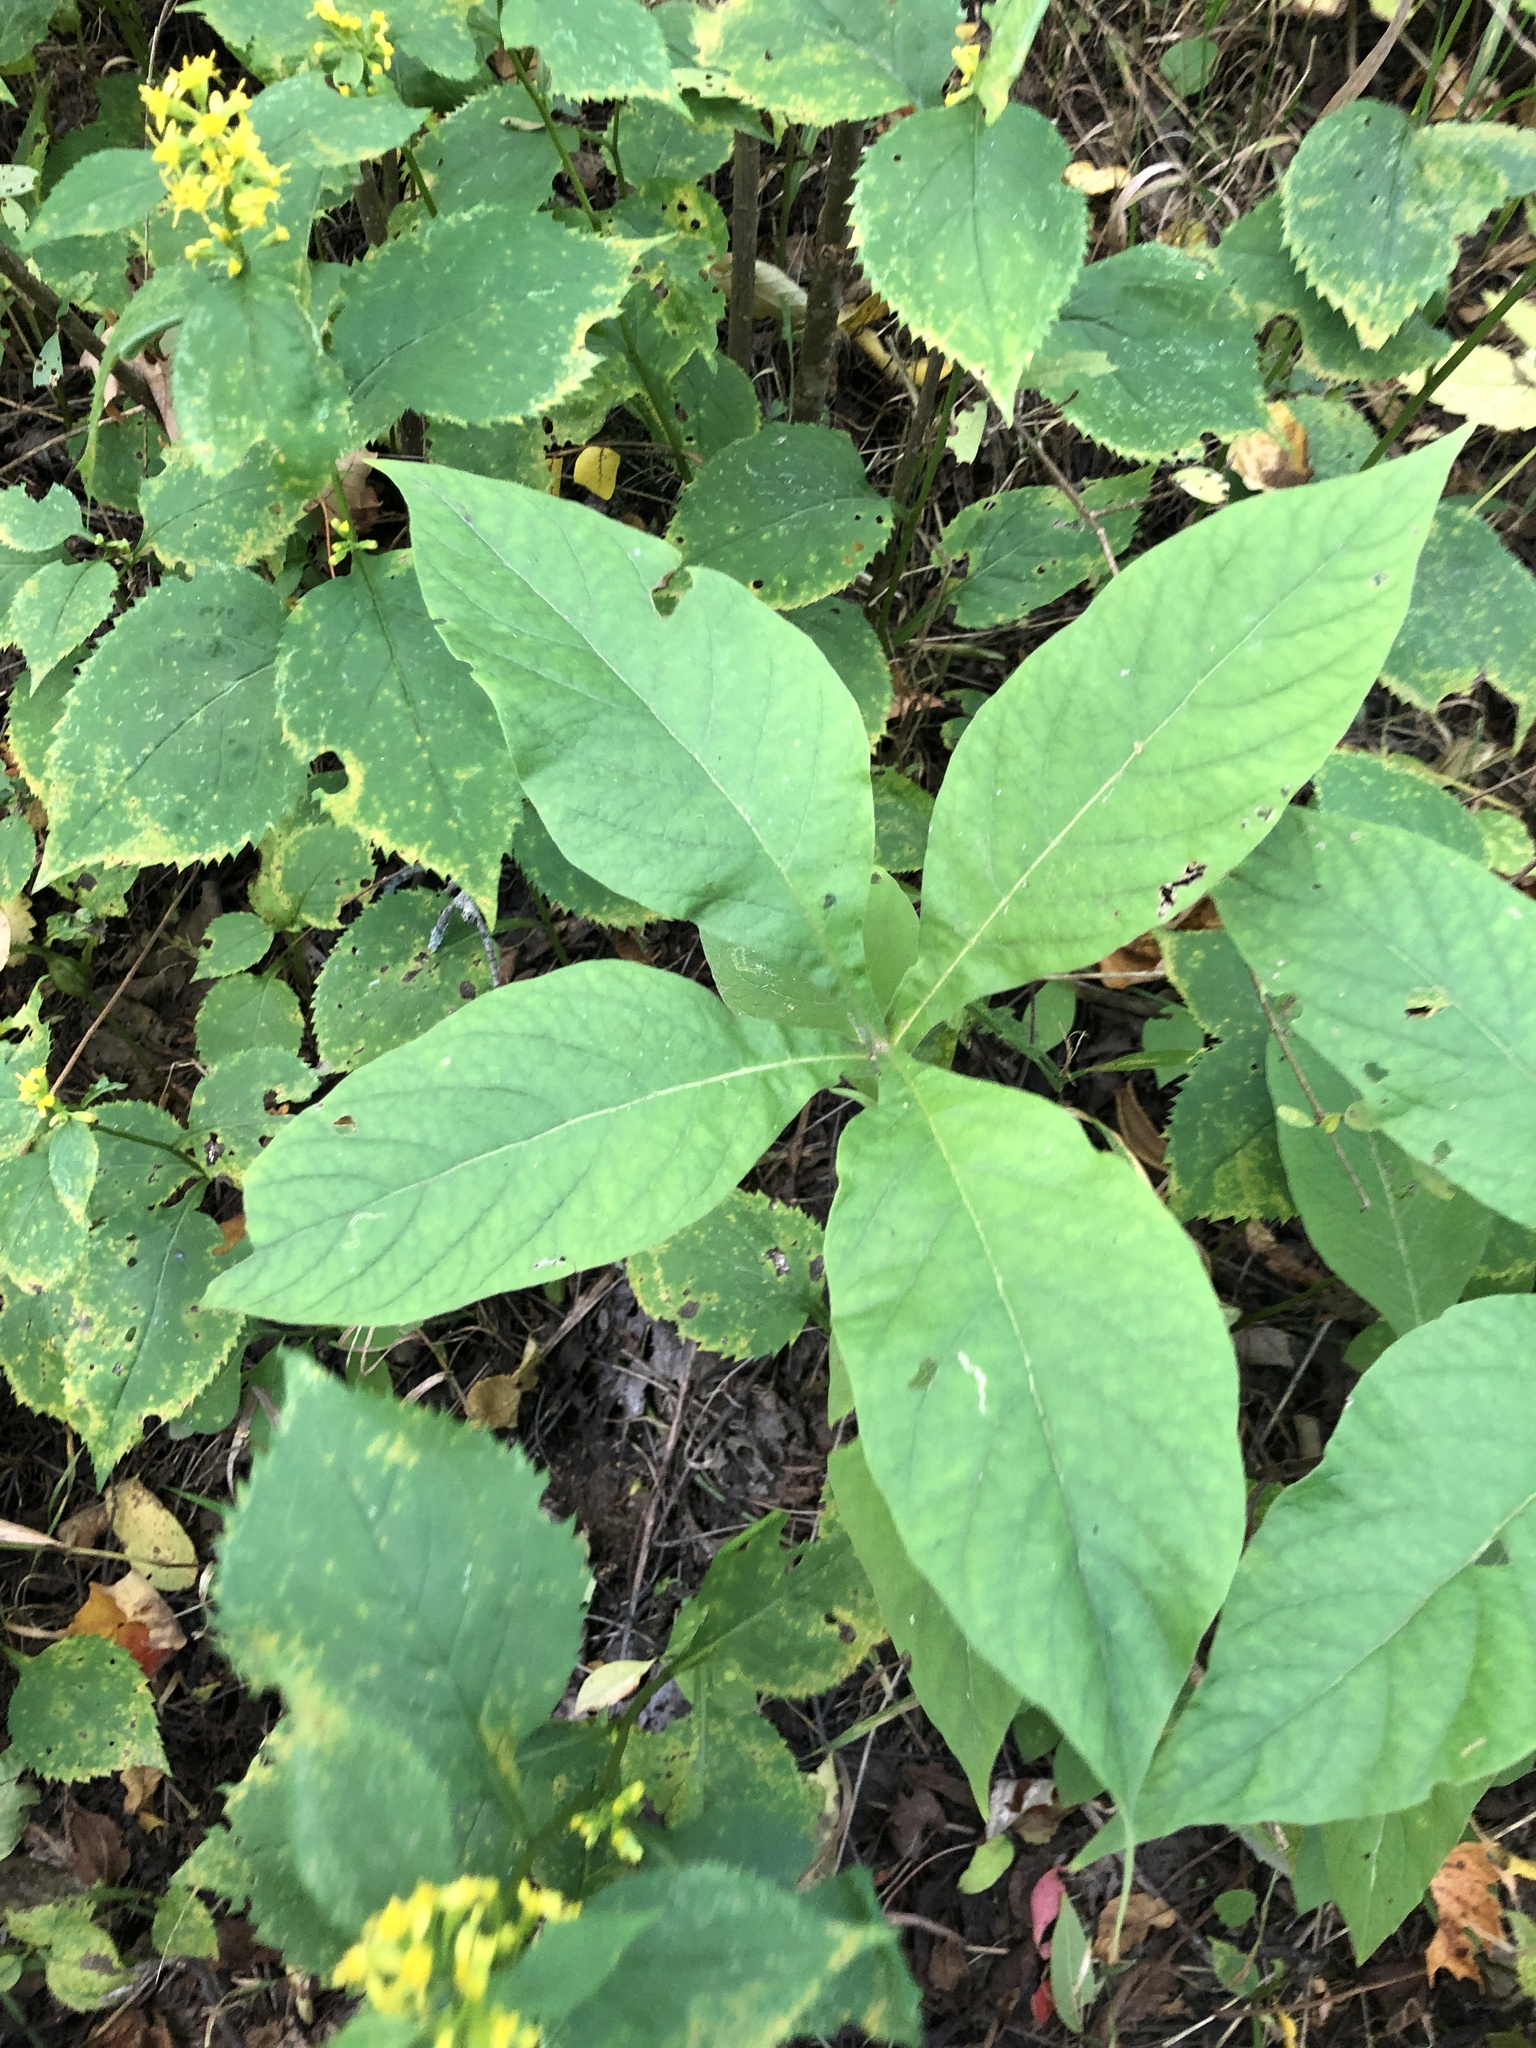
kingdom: Plantae
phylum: Tracheophyta
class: Magnoliopsida
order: Dipsacales
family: Caprifoliaceae
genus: Triosteum
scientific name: Triosteum aurantiacum
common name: Coffee tinker's-weed
